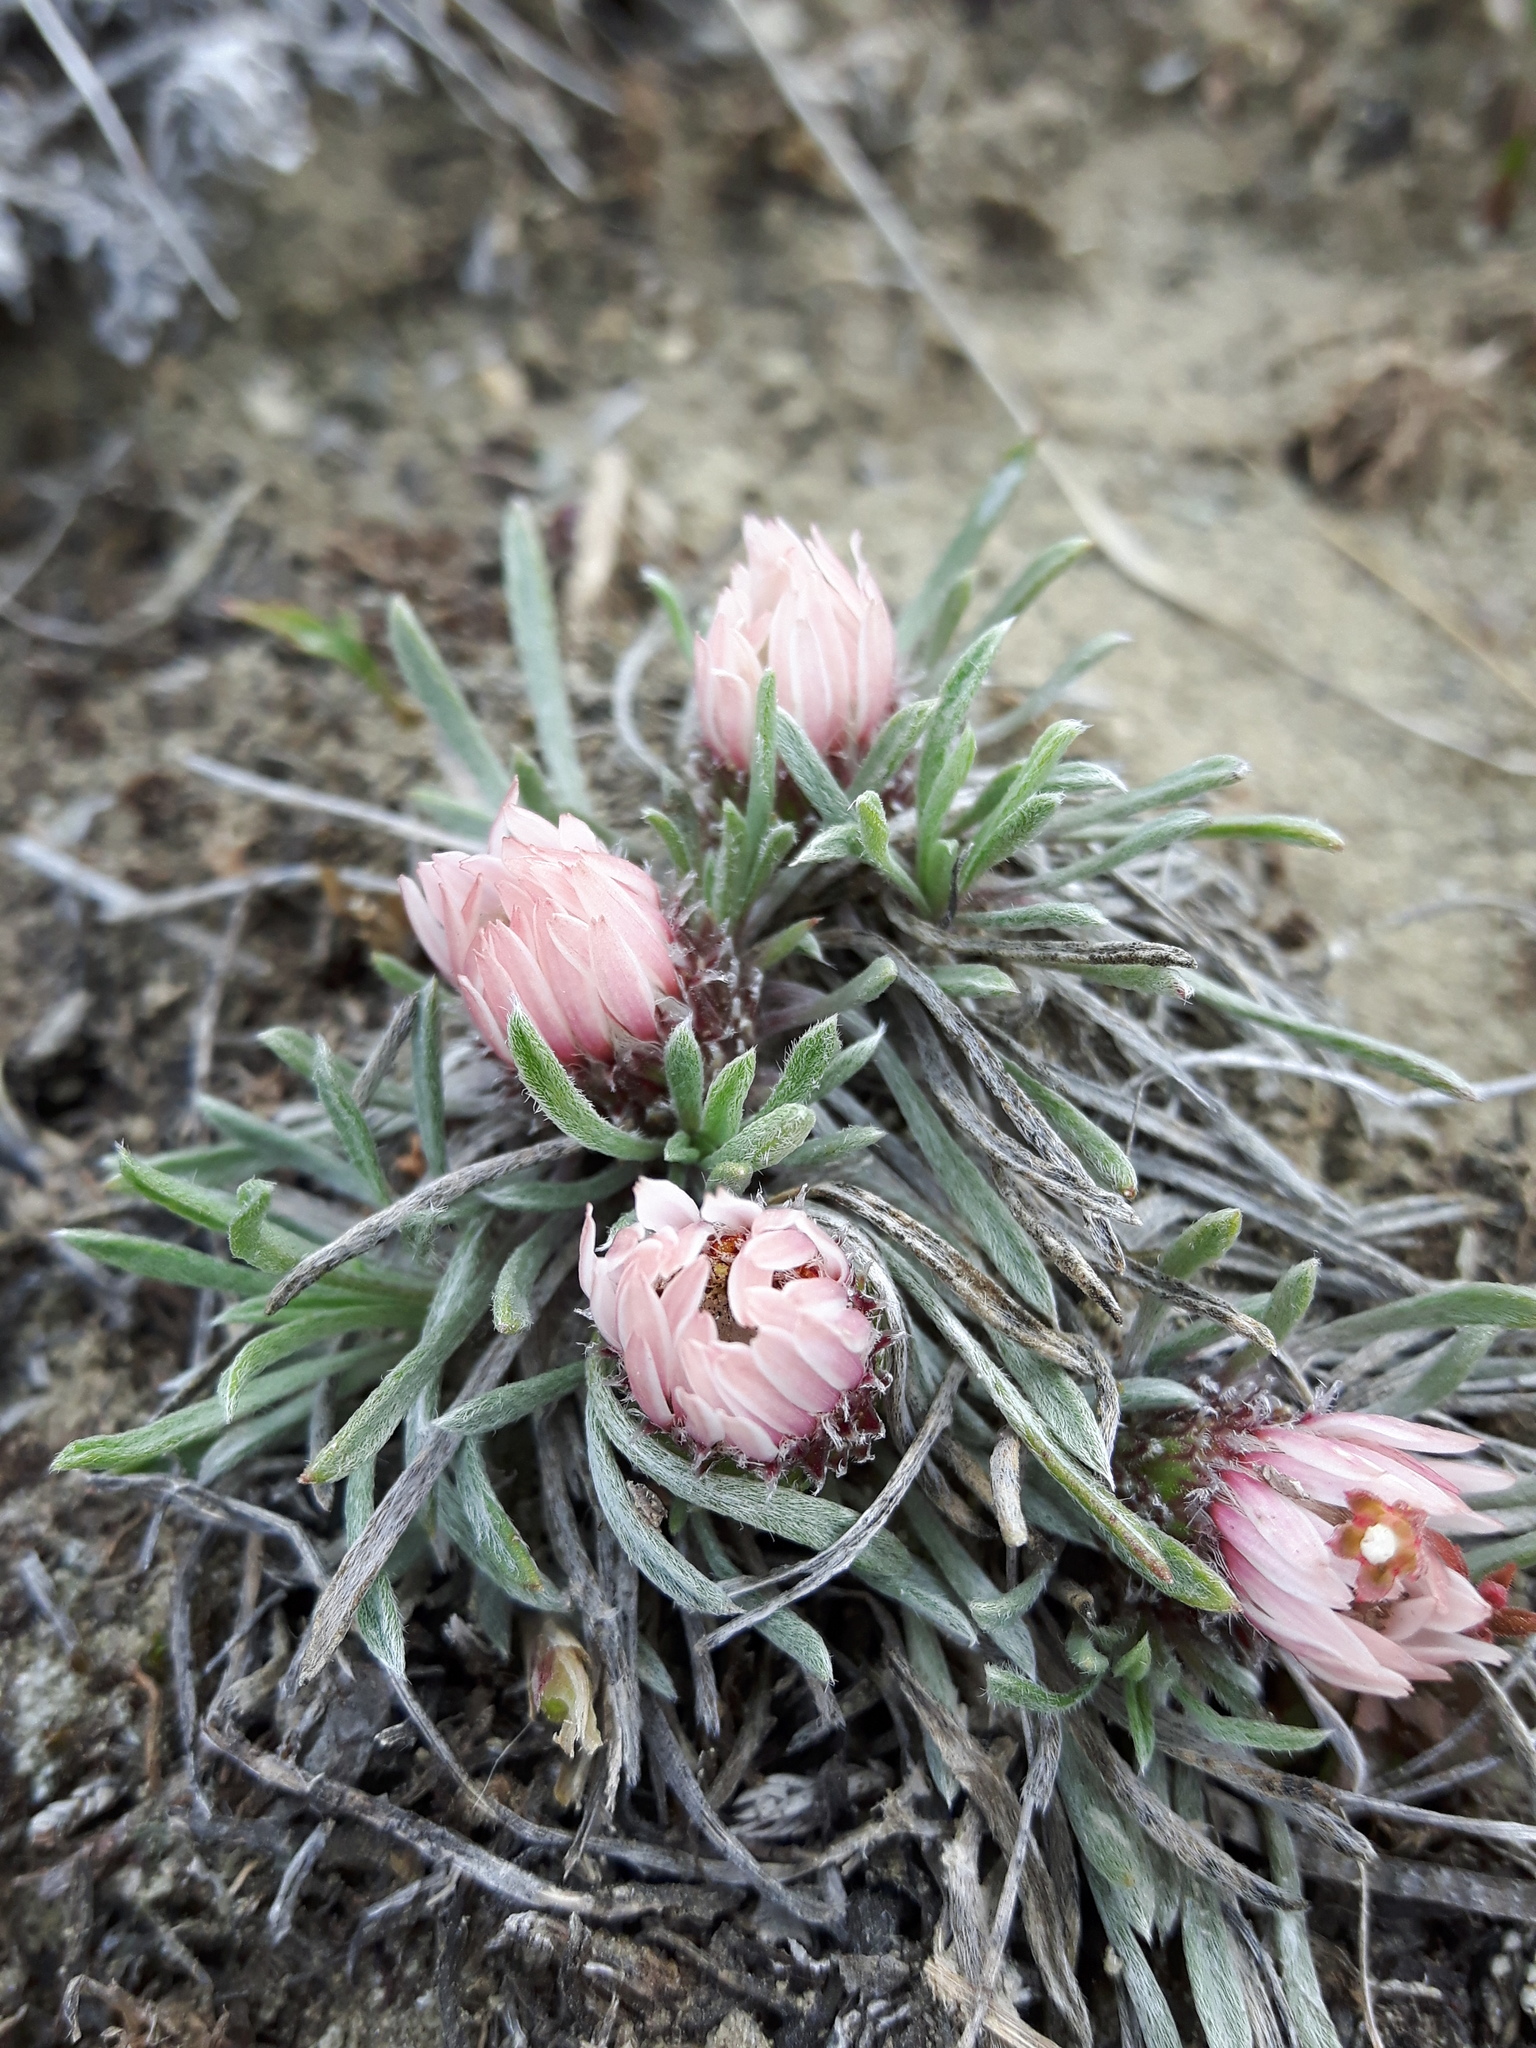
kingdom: Plantae
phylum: Tracheophyta
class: Magnoliopsida
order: Asterales
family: Asteraceae
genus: Townsendia
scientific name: Townsendia hookeri
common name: Hooker's townsend daisy
